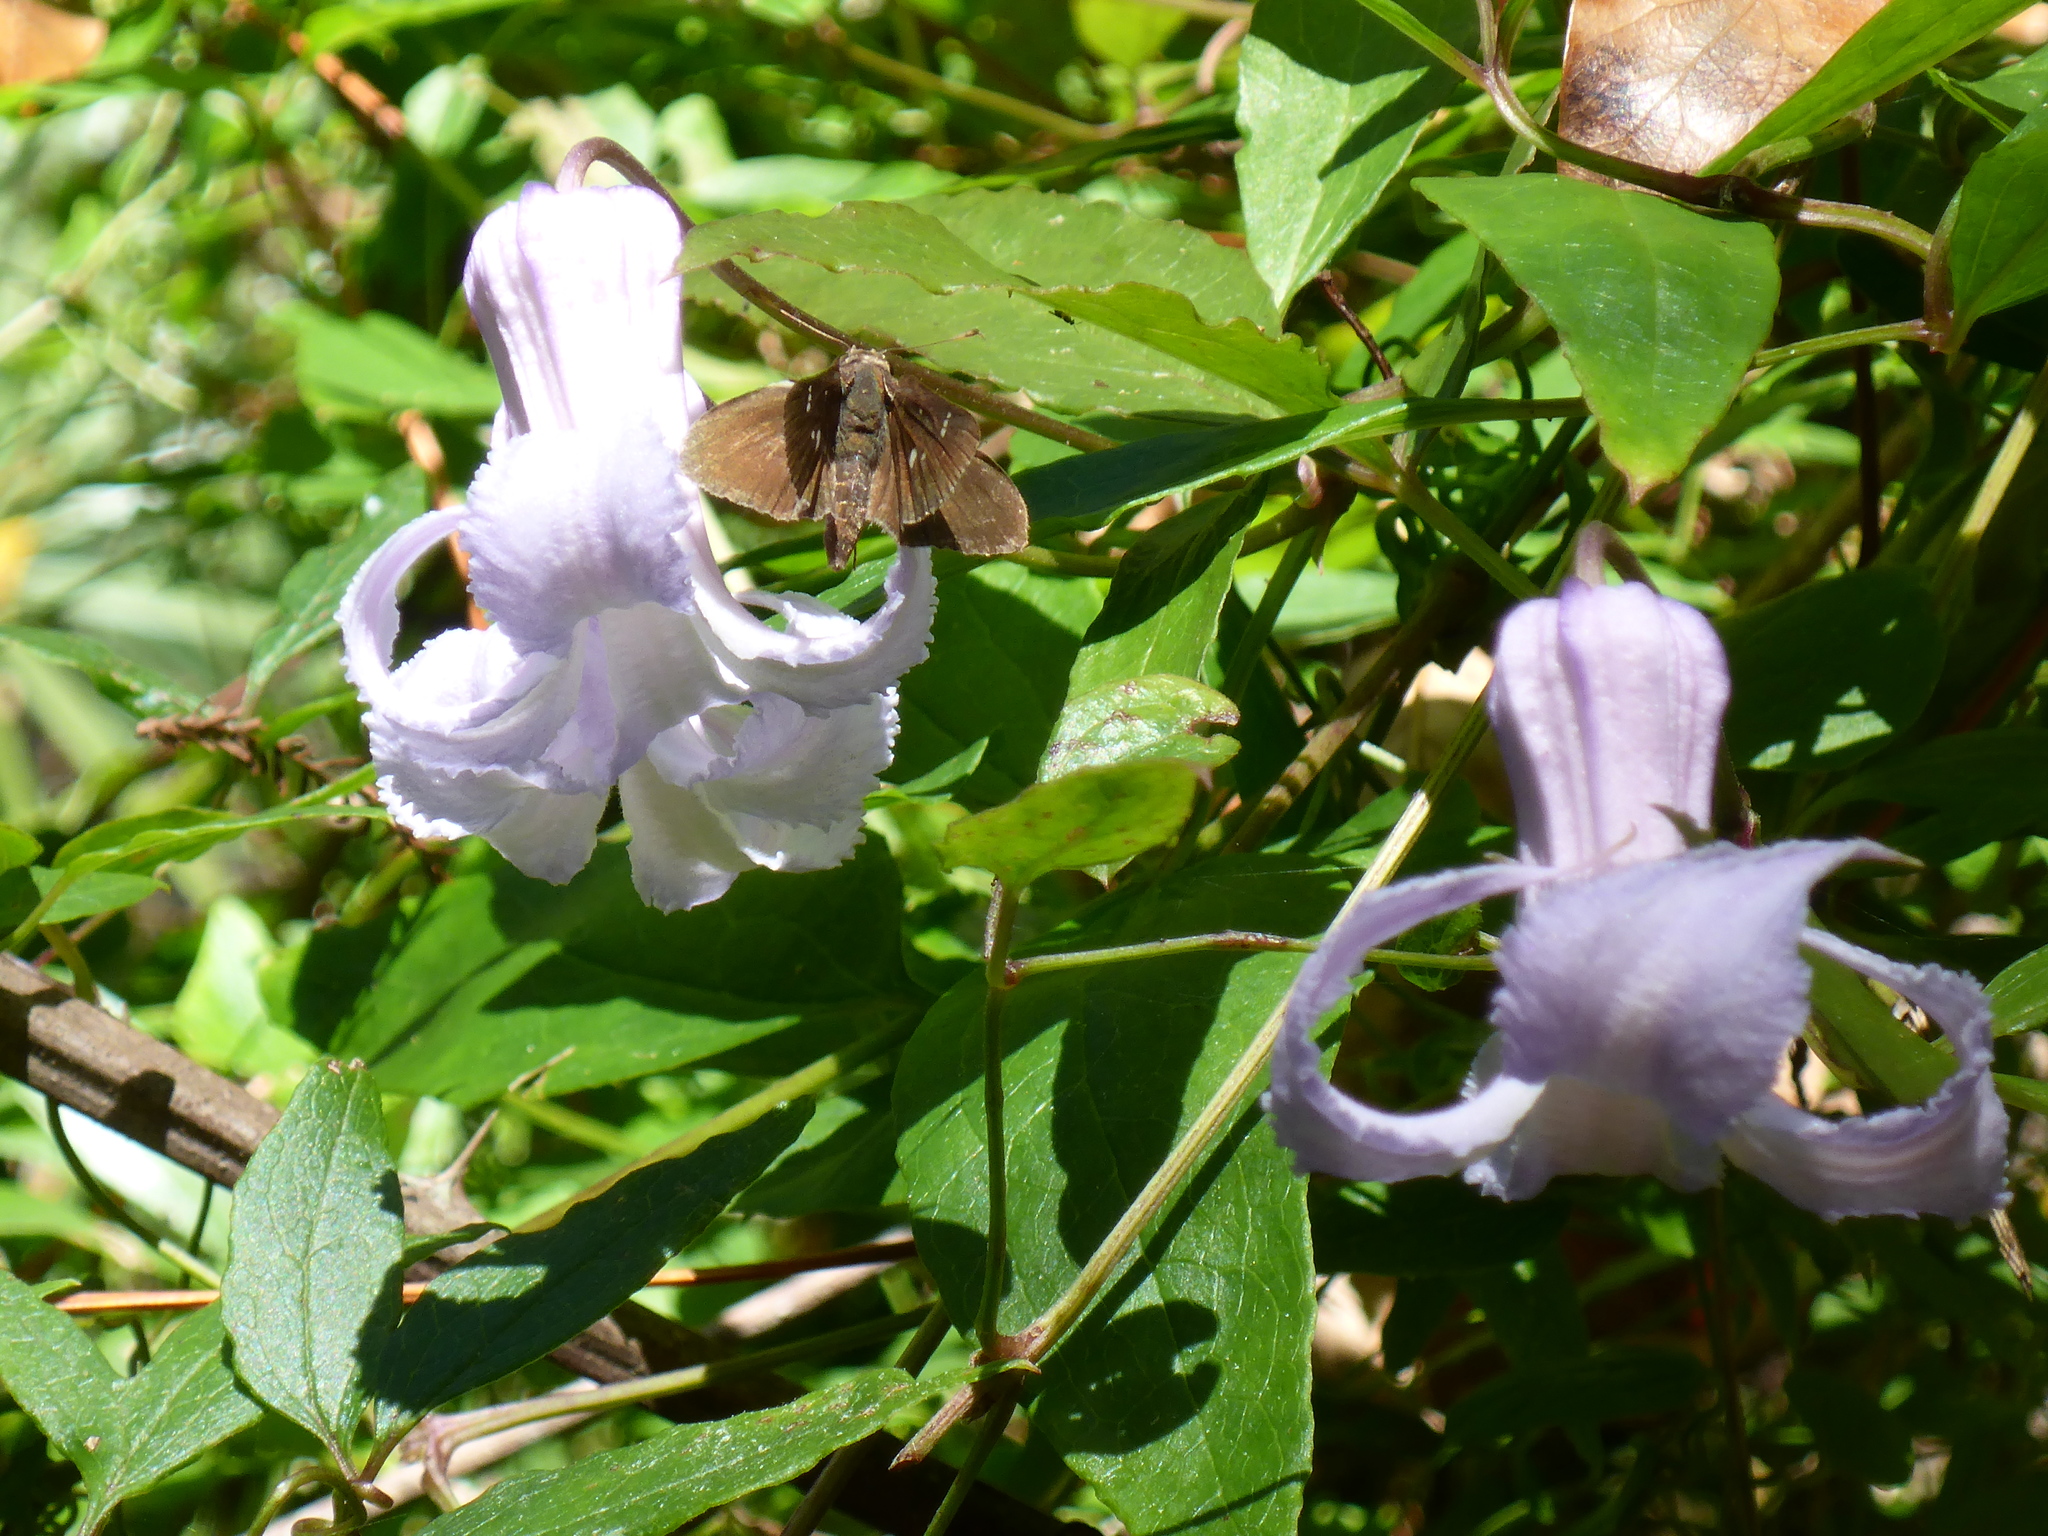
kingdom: Animalia
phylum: Arthropoda
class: Insecta
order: Lepidoptera
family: Hesperiidae
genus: Lerema
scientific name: Lerema accius
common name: Clouded skipper
